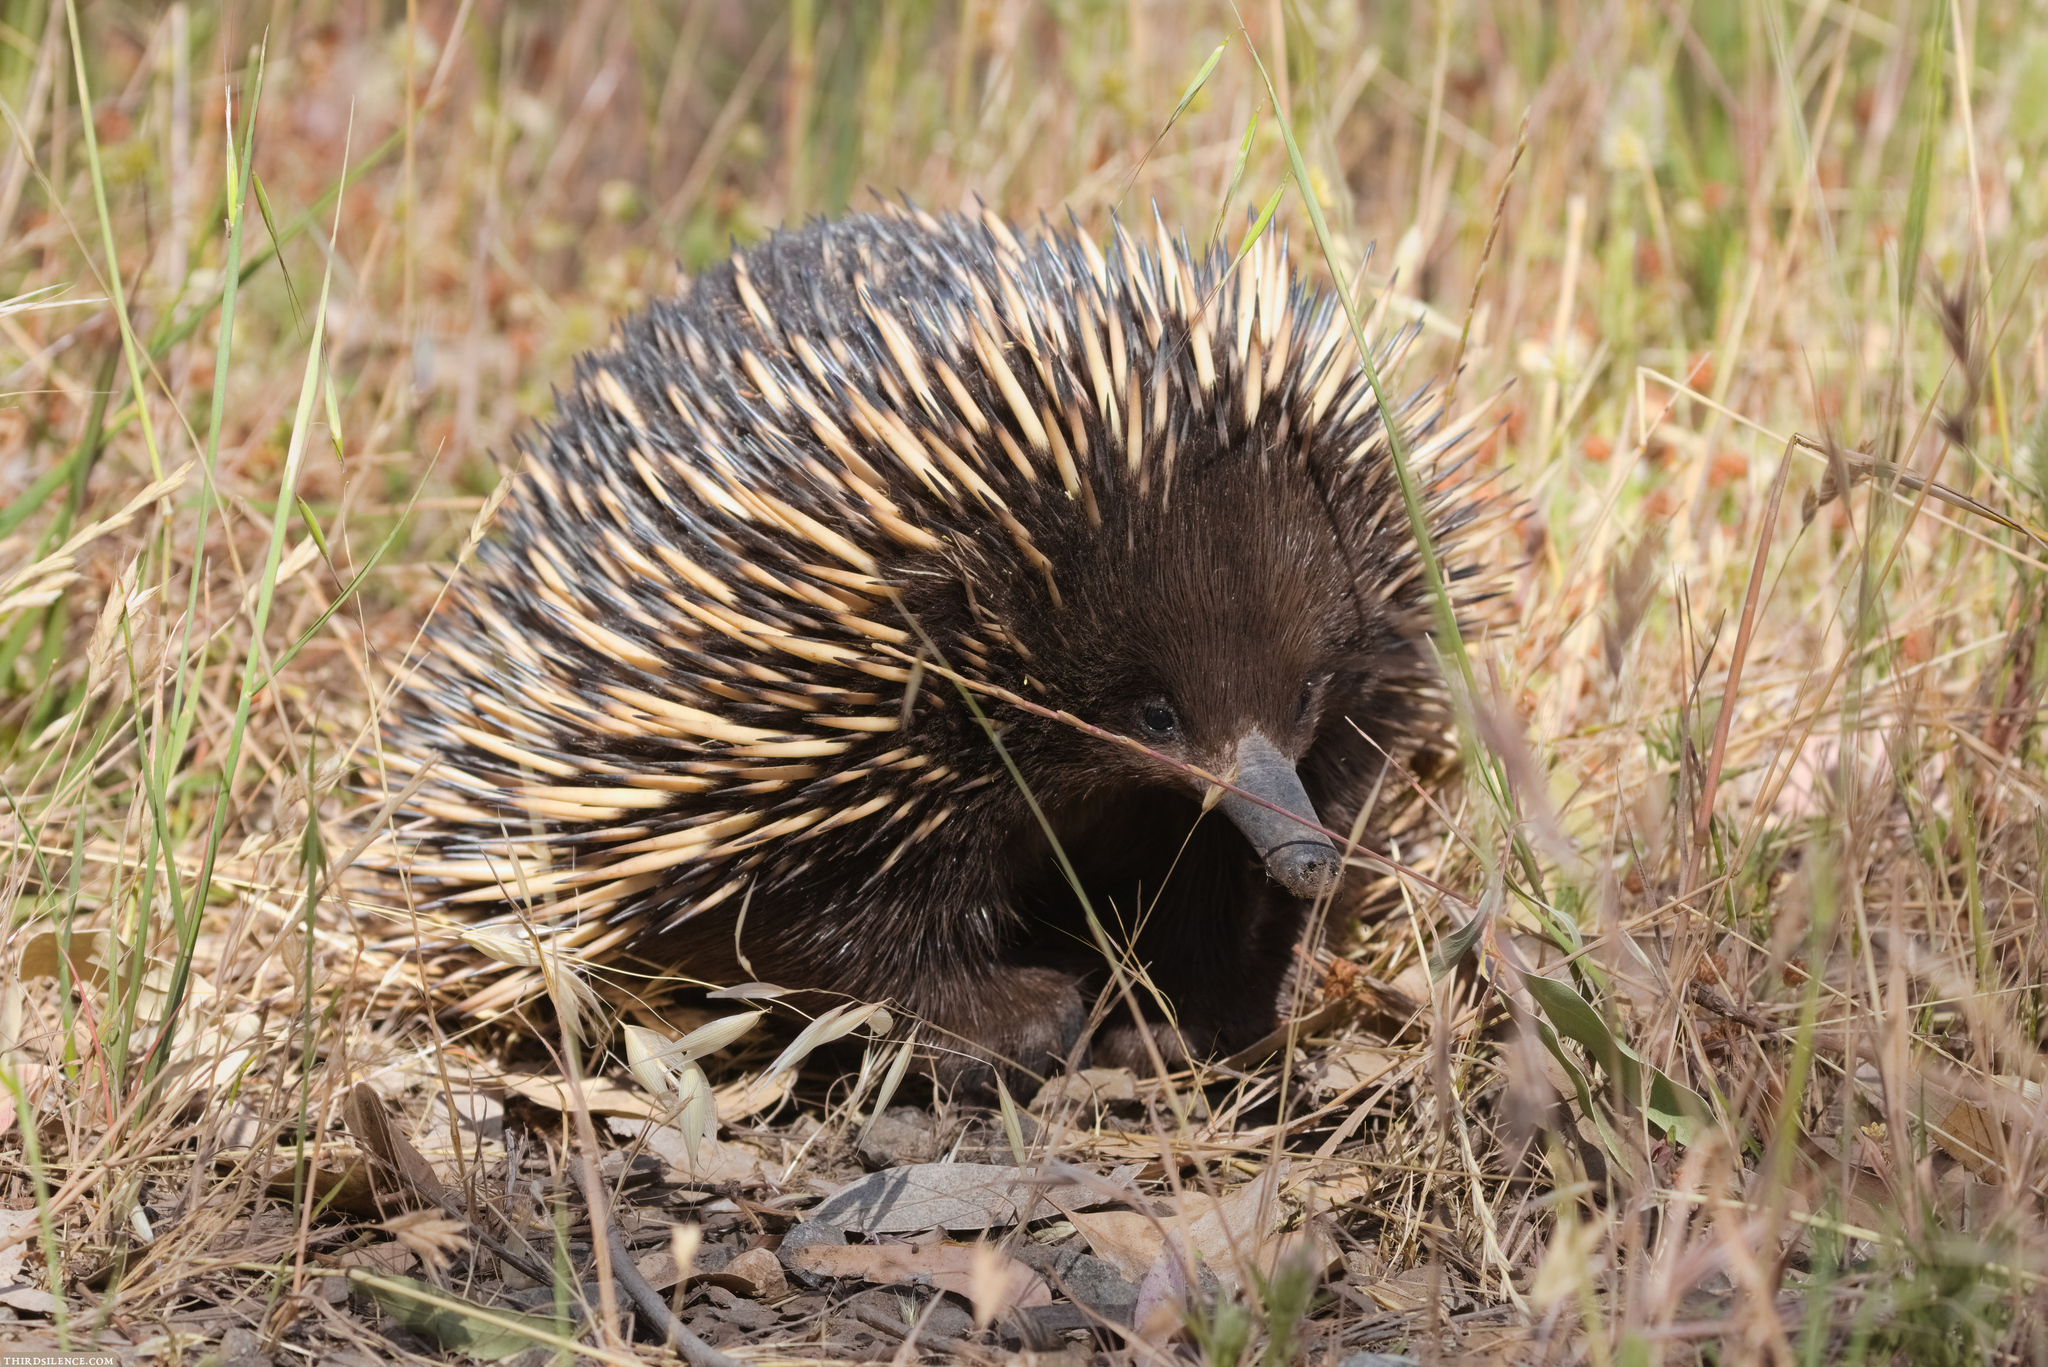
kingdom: Animalia
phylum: Chordata
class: Mammalia
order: Monotremata
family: Tachyglossidae
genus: Tachyglossus
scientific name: Tachyglossus aculeatus
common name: Short-beaked echidna
